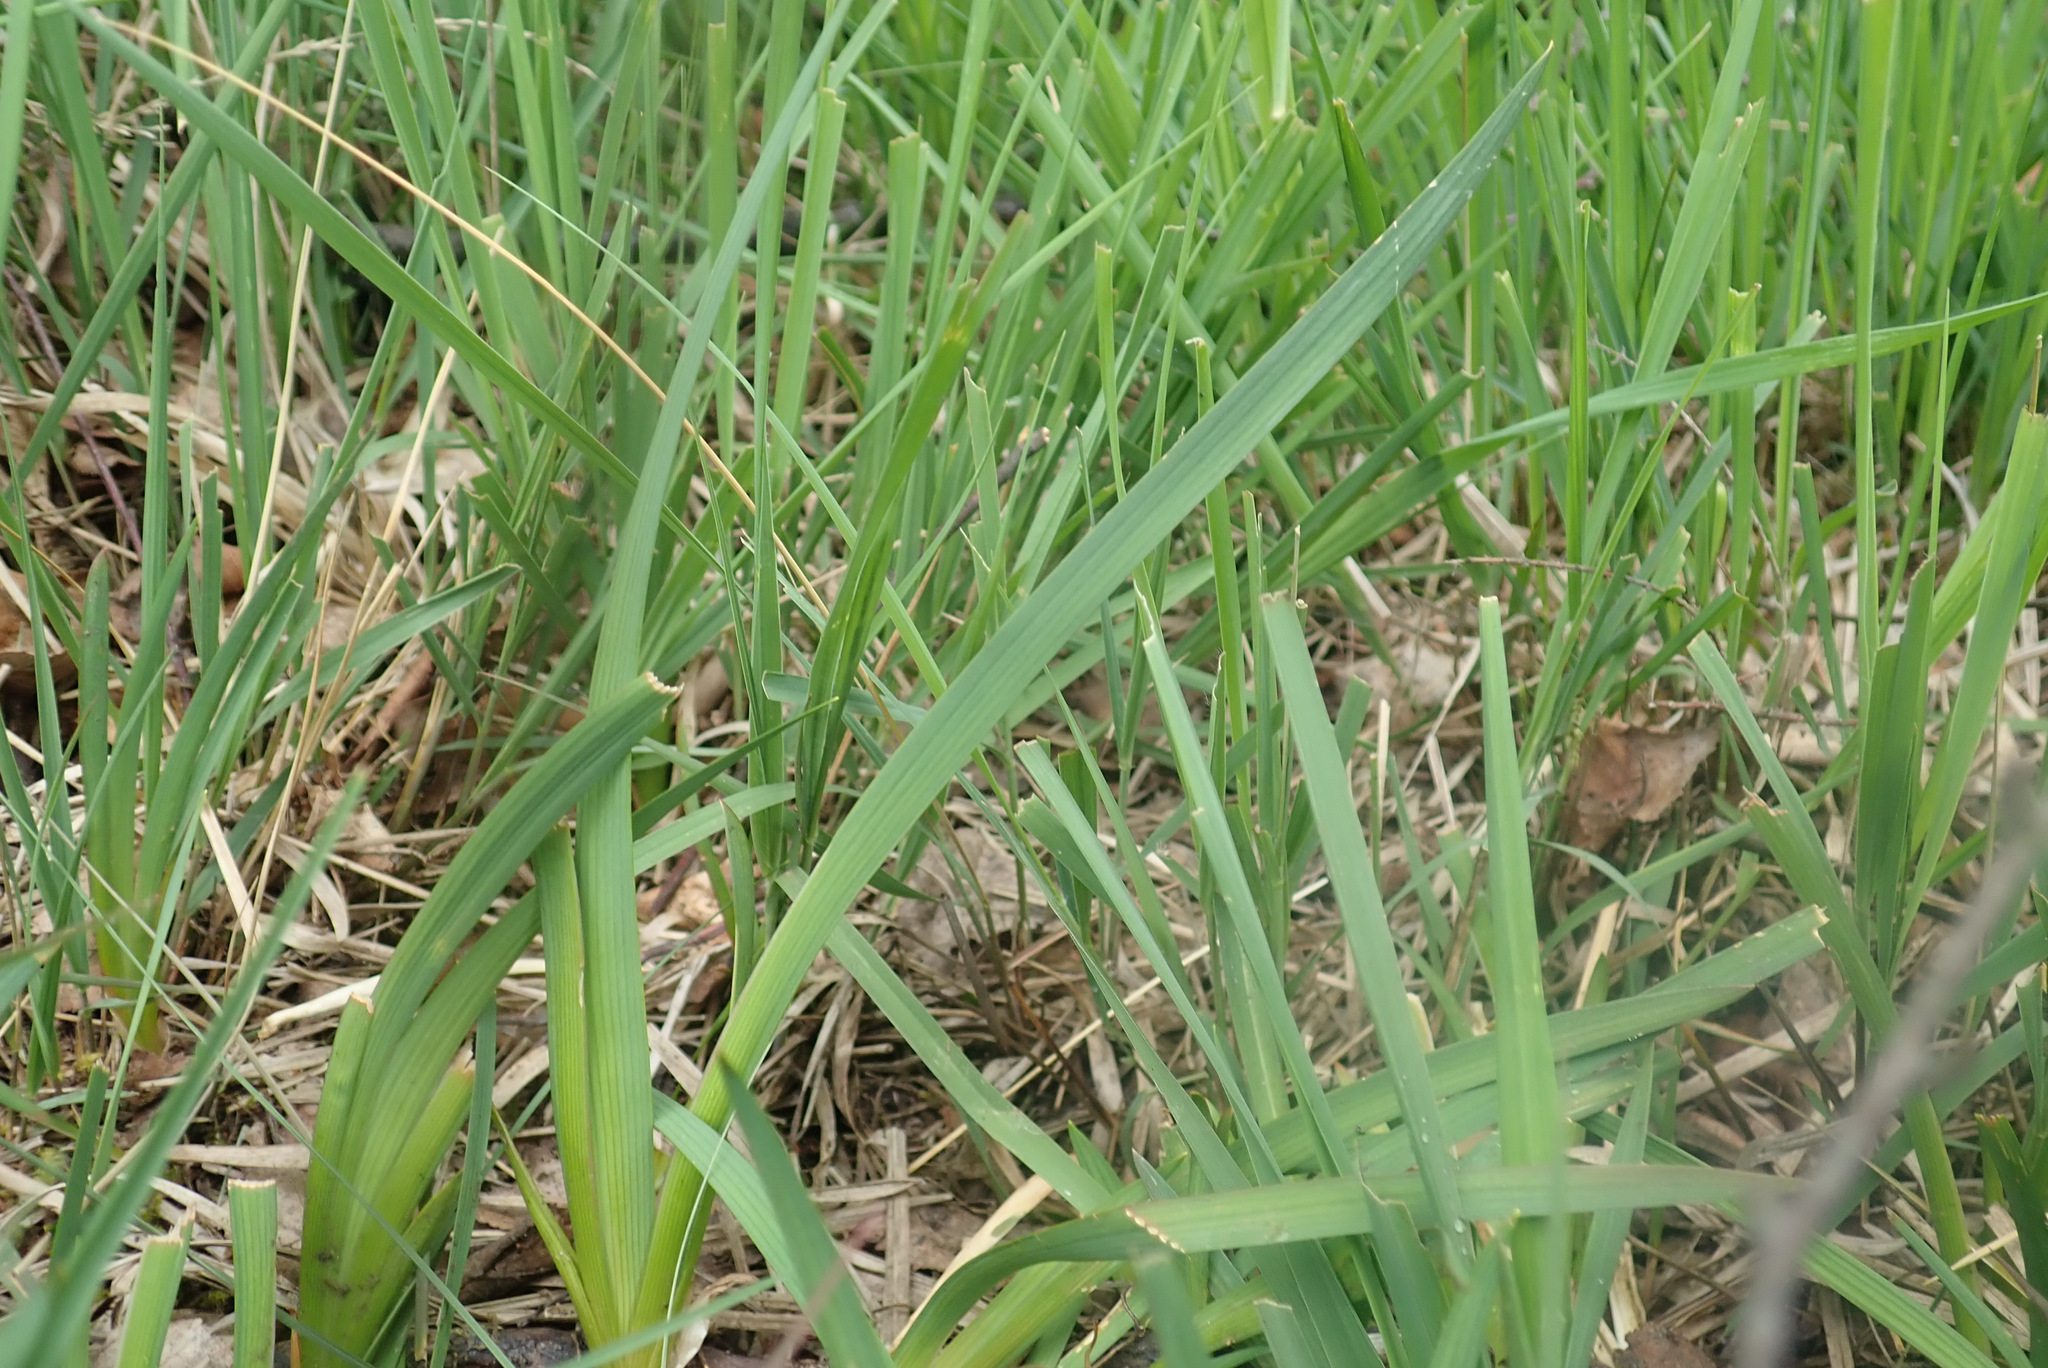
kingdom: Plantae
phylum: Tracheophyta
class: Liliopsida
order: Dioscoreales
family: Nartheciaceae
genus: Narthecium
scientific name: Narthecium ossifragum
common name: Bog asphodel
